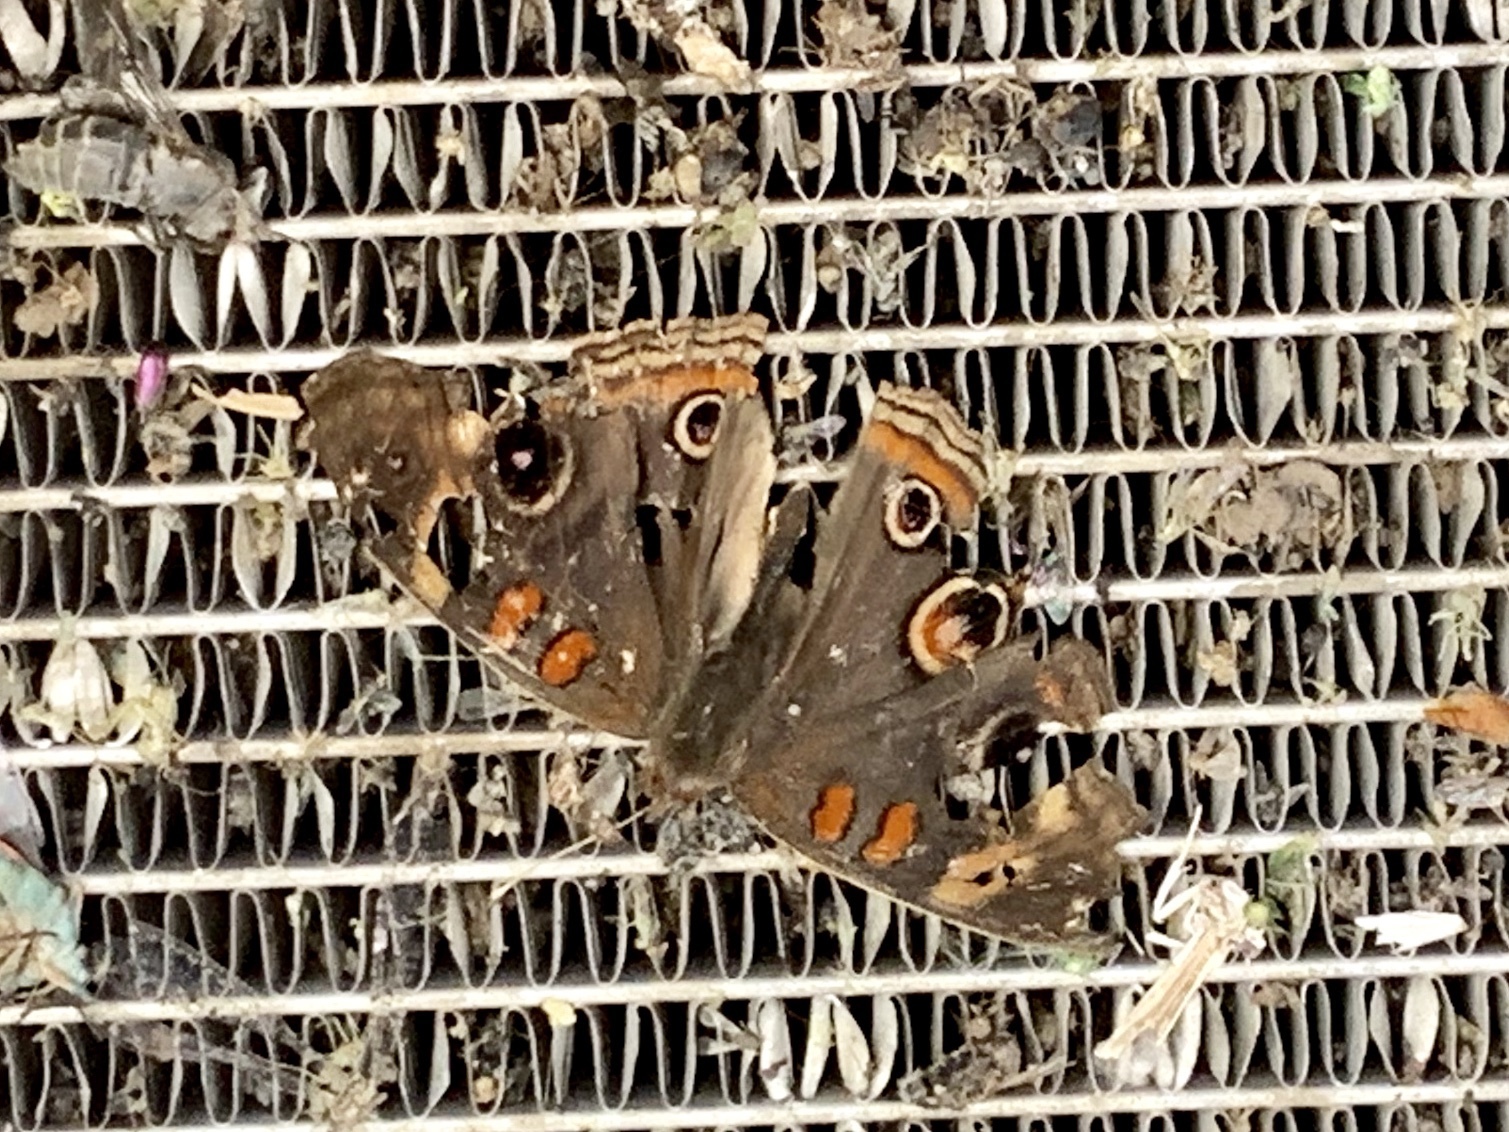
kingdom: Animalia
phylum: Arthropoda
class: Insecta
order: Lepidoptera
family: Nymphalidae
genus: Junonia
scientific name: Junonia grisea
